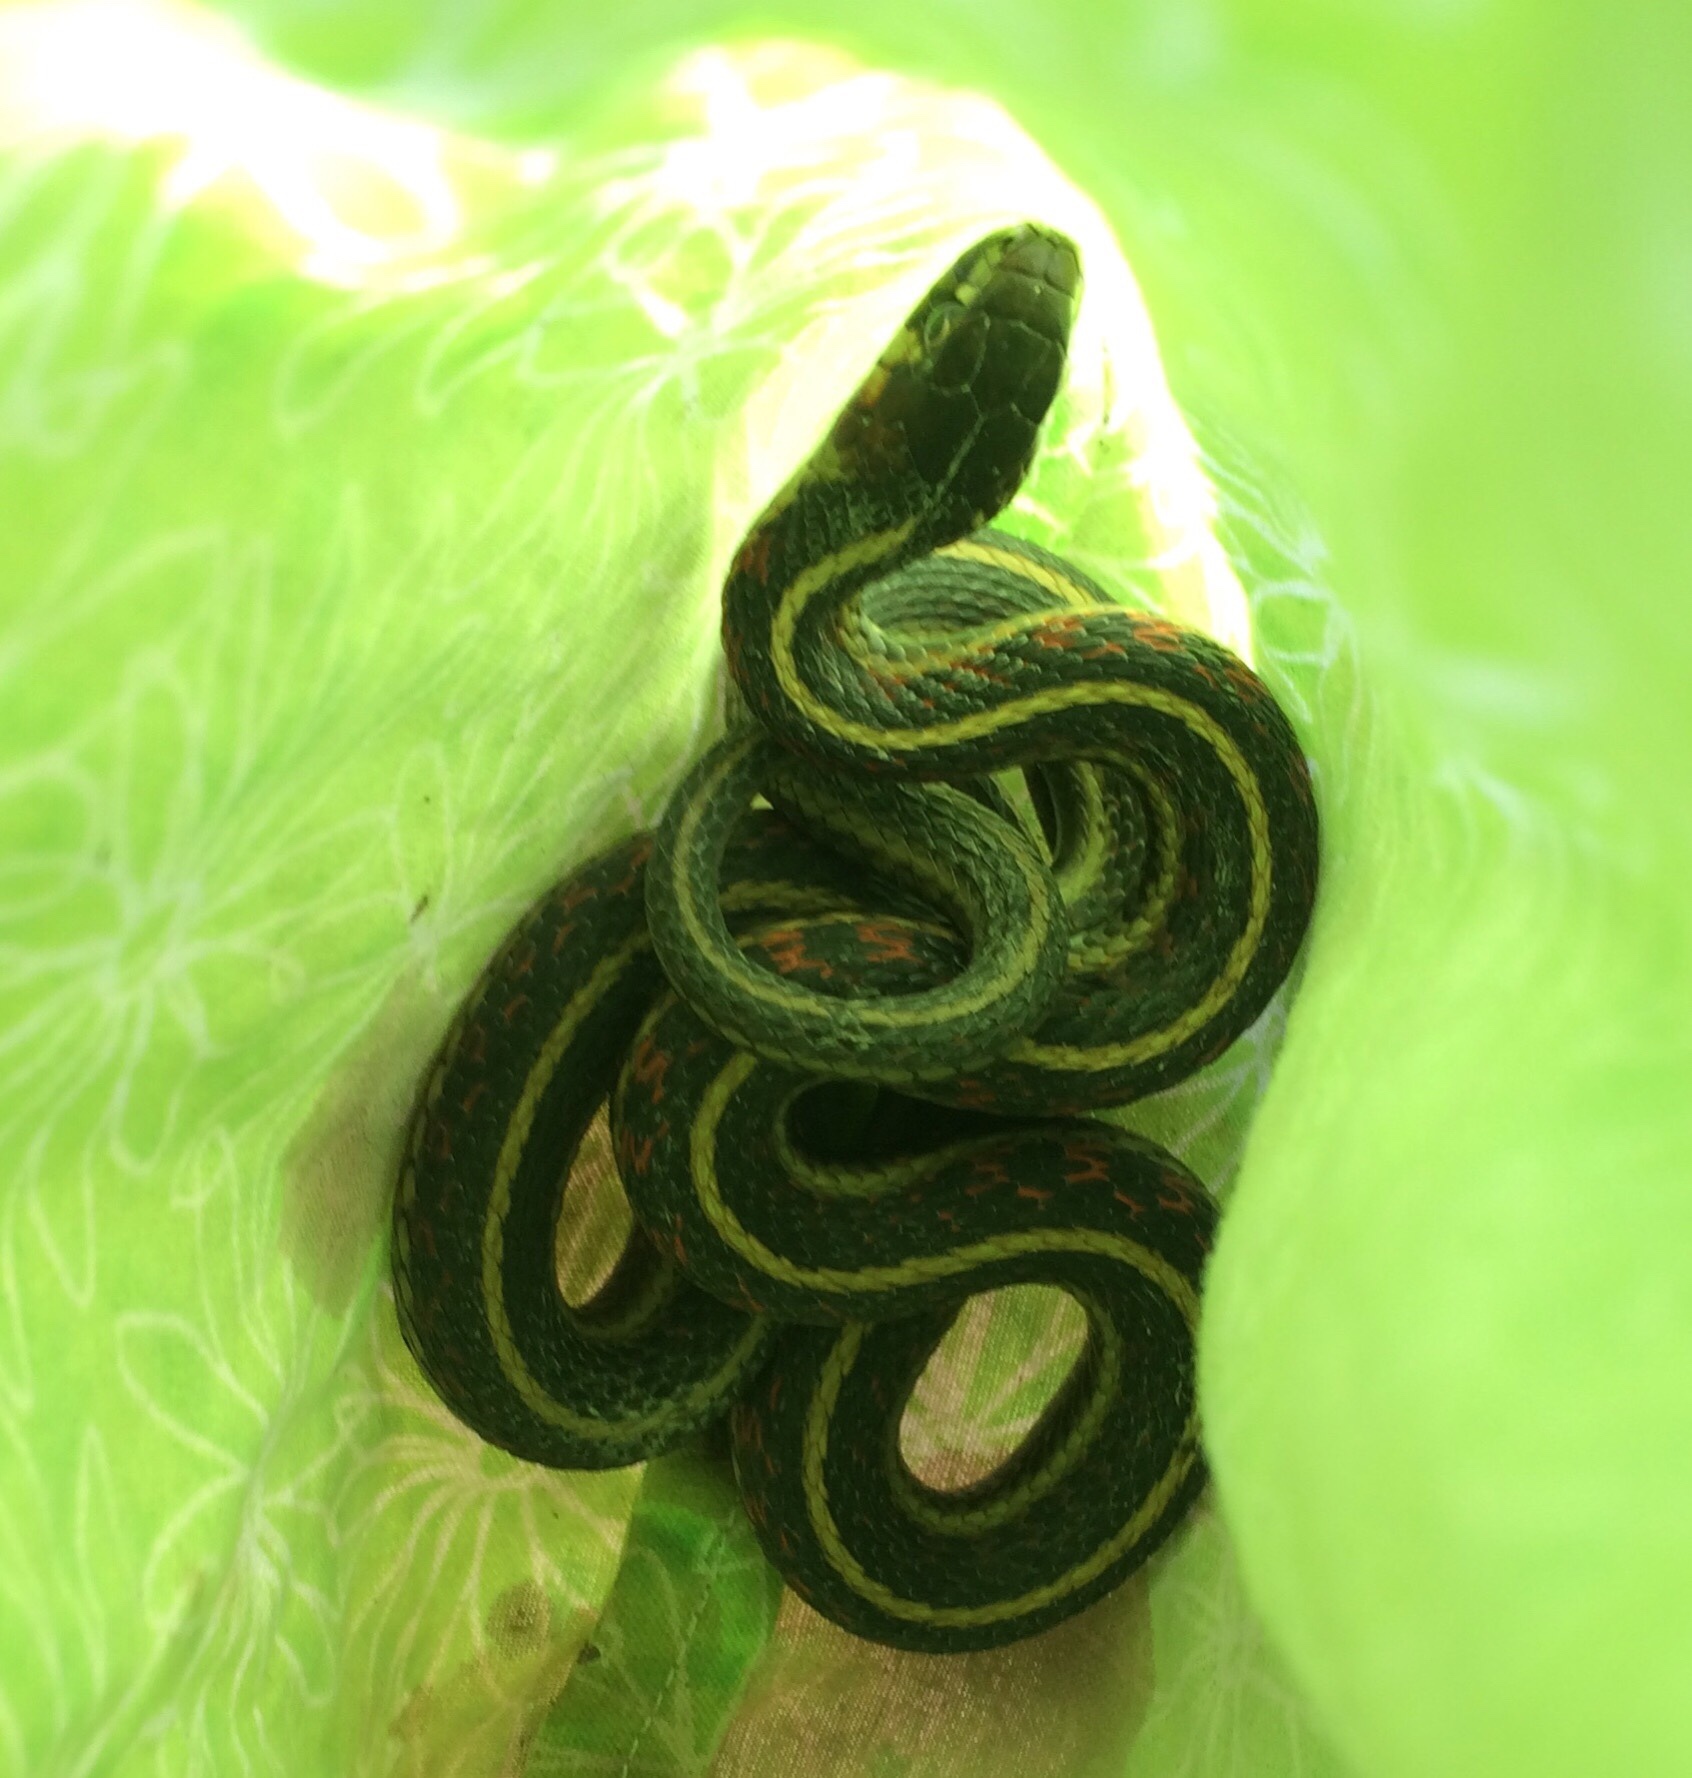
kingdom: Animalia
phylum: Chordata
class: Squamata
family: Colubridae
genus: Thamnophis
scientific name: Thamnophis sirtalis
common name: Common garter snake
